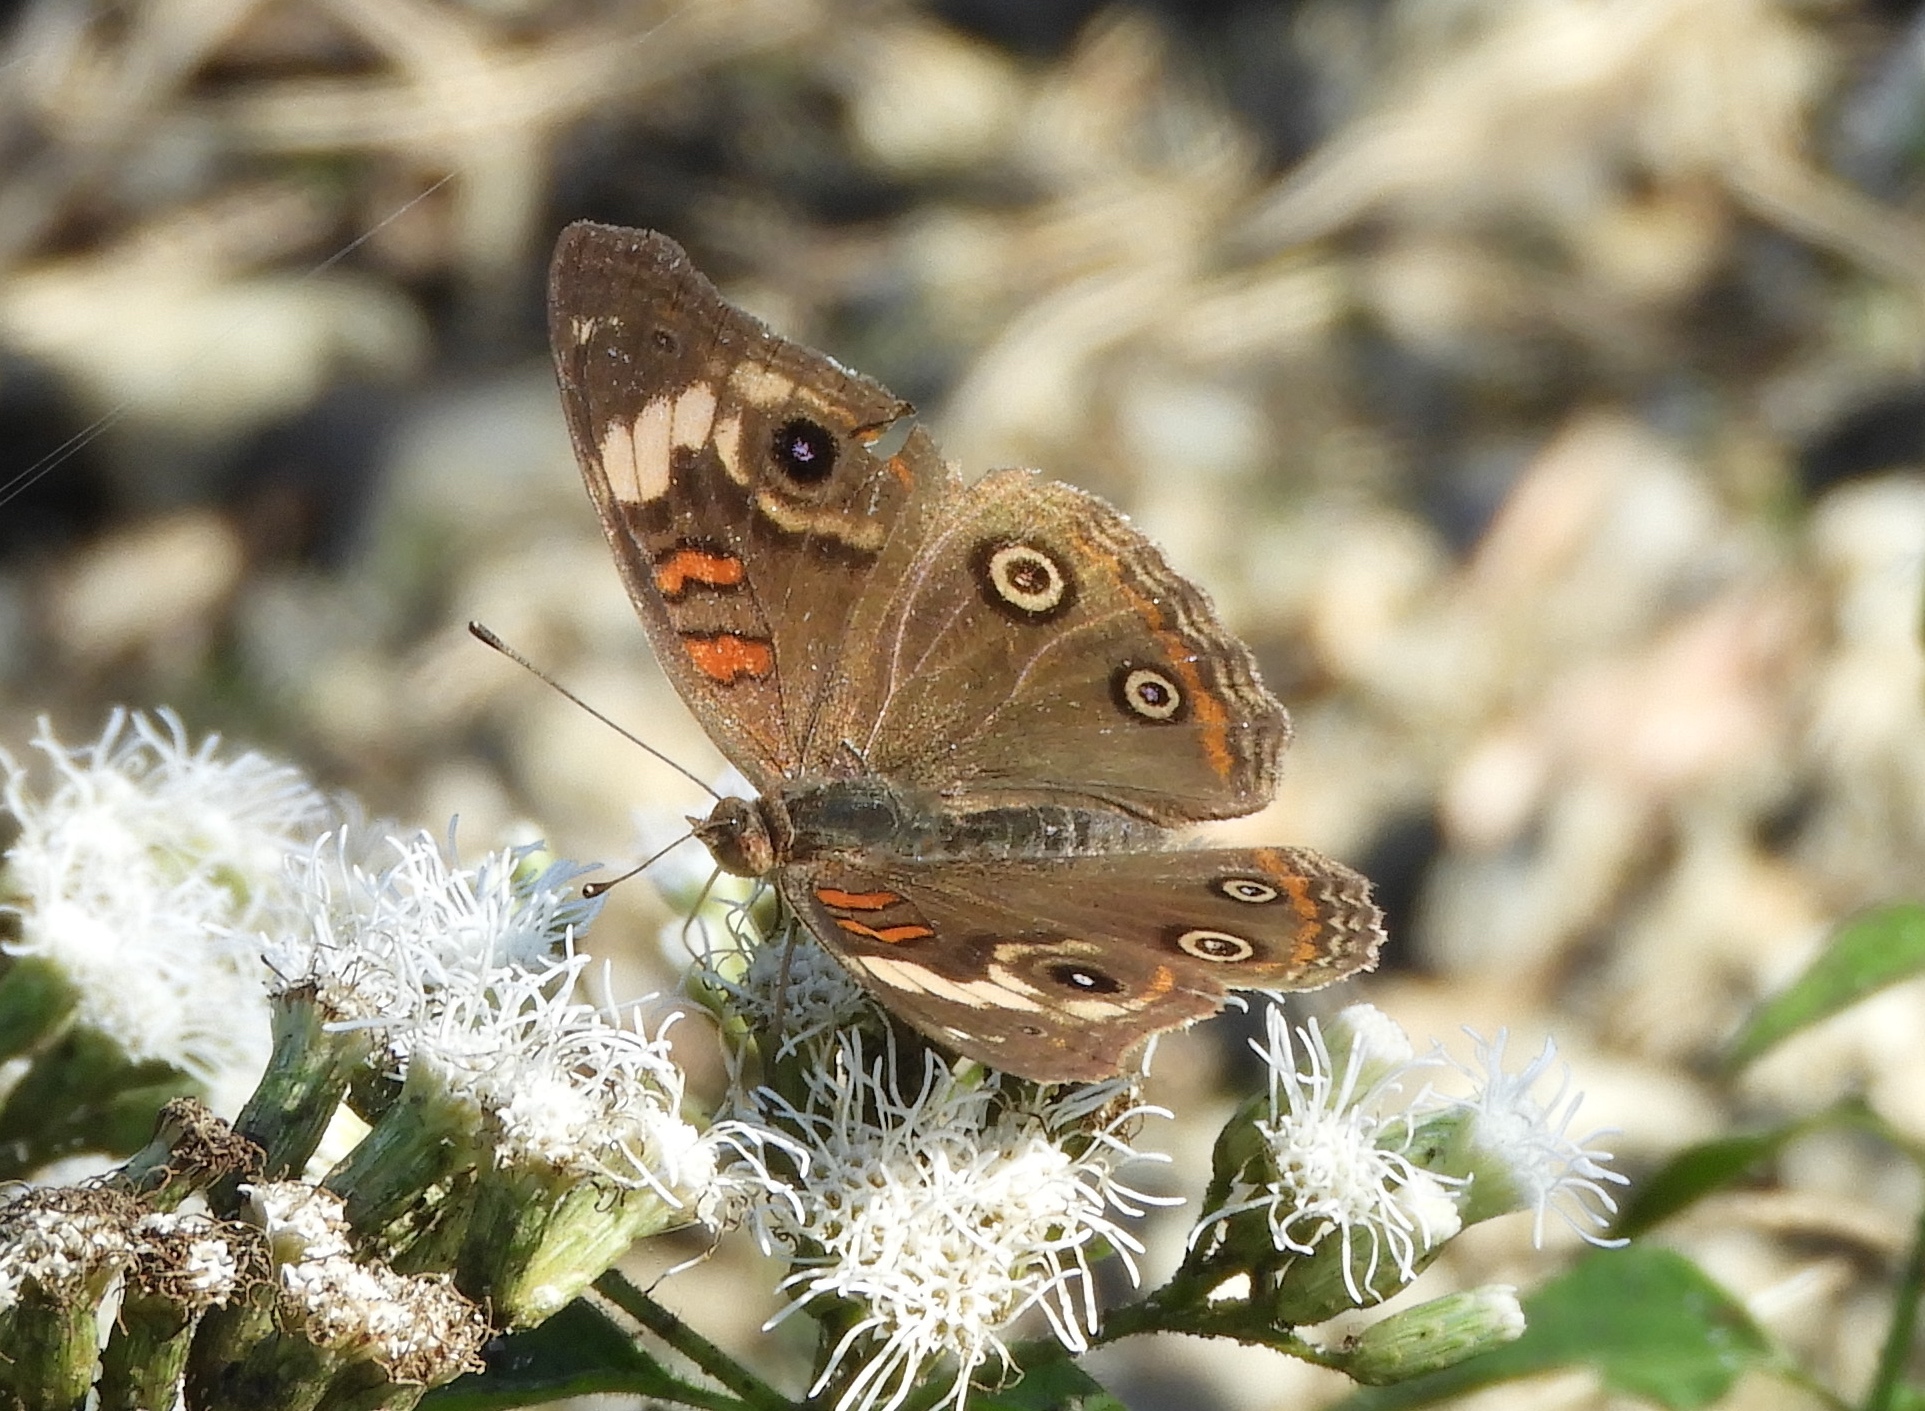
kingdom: Animalia
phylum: Arthropoda
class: Insecta
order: Lepidoptera
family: Nymphalidae
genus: Junonia
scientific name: Junonia pacoma
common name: Pacific mangrove buckeye
